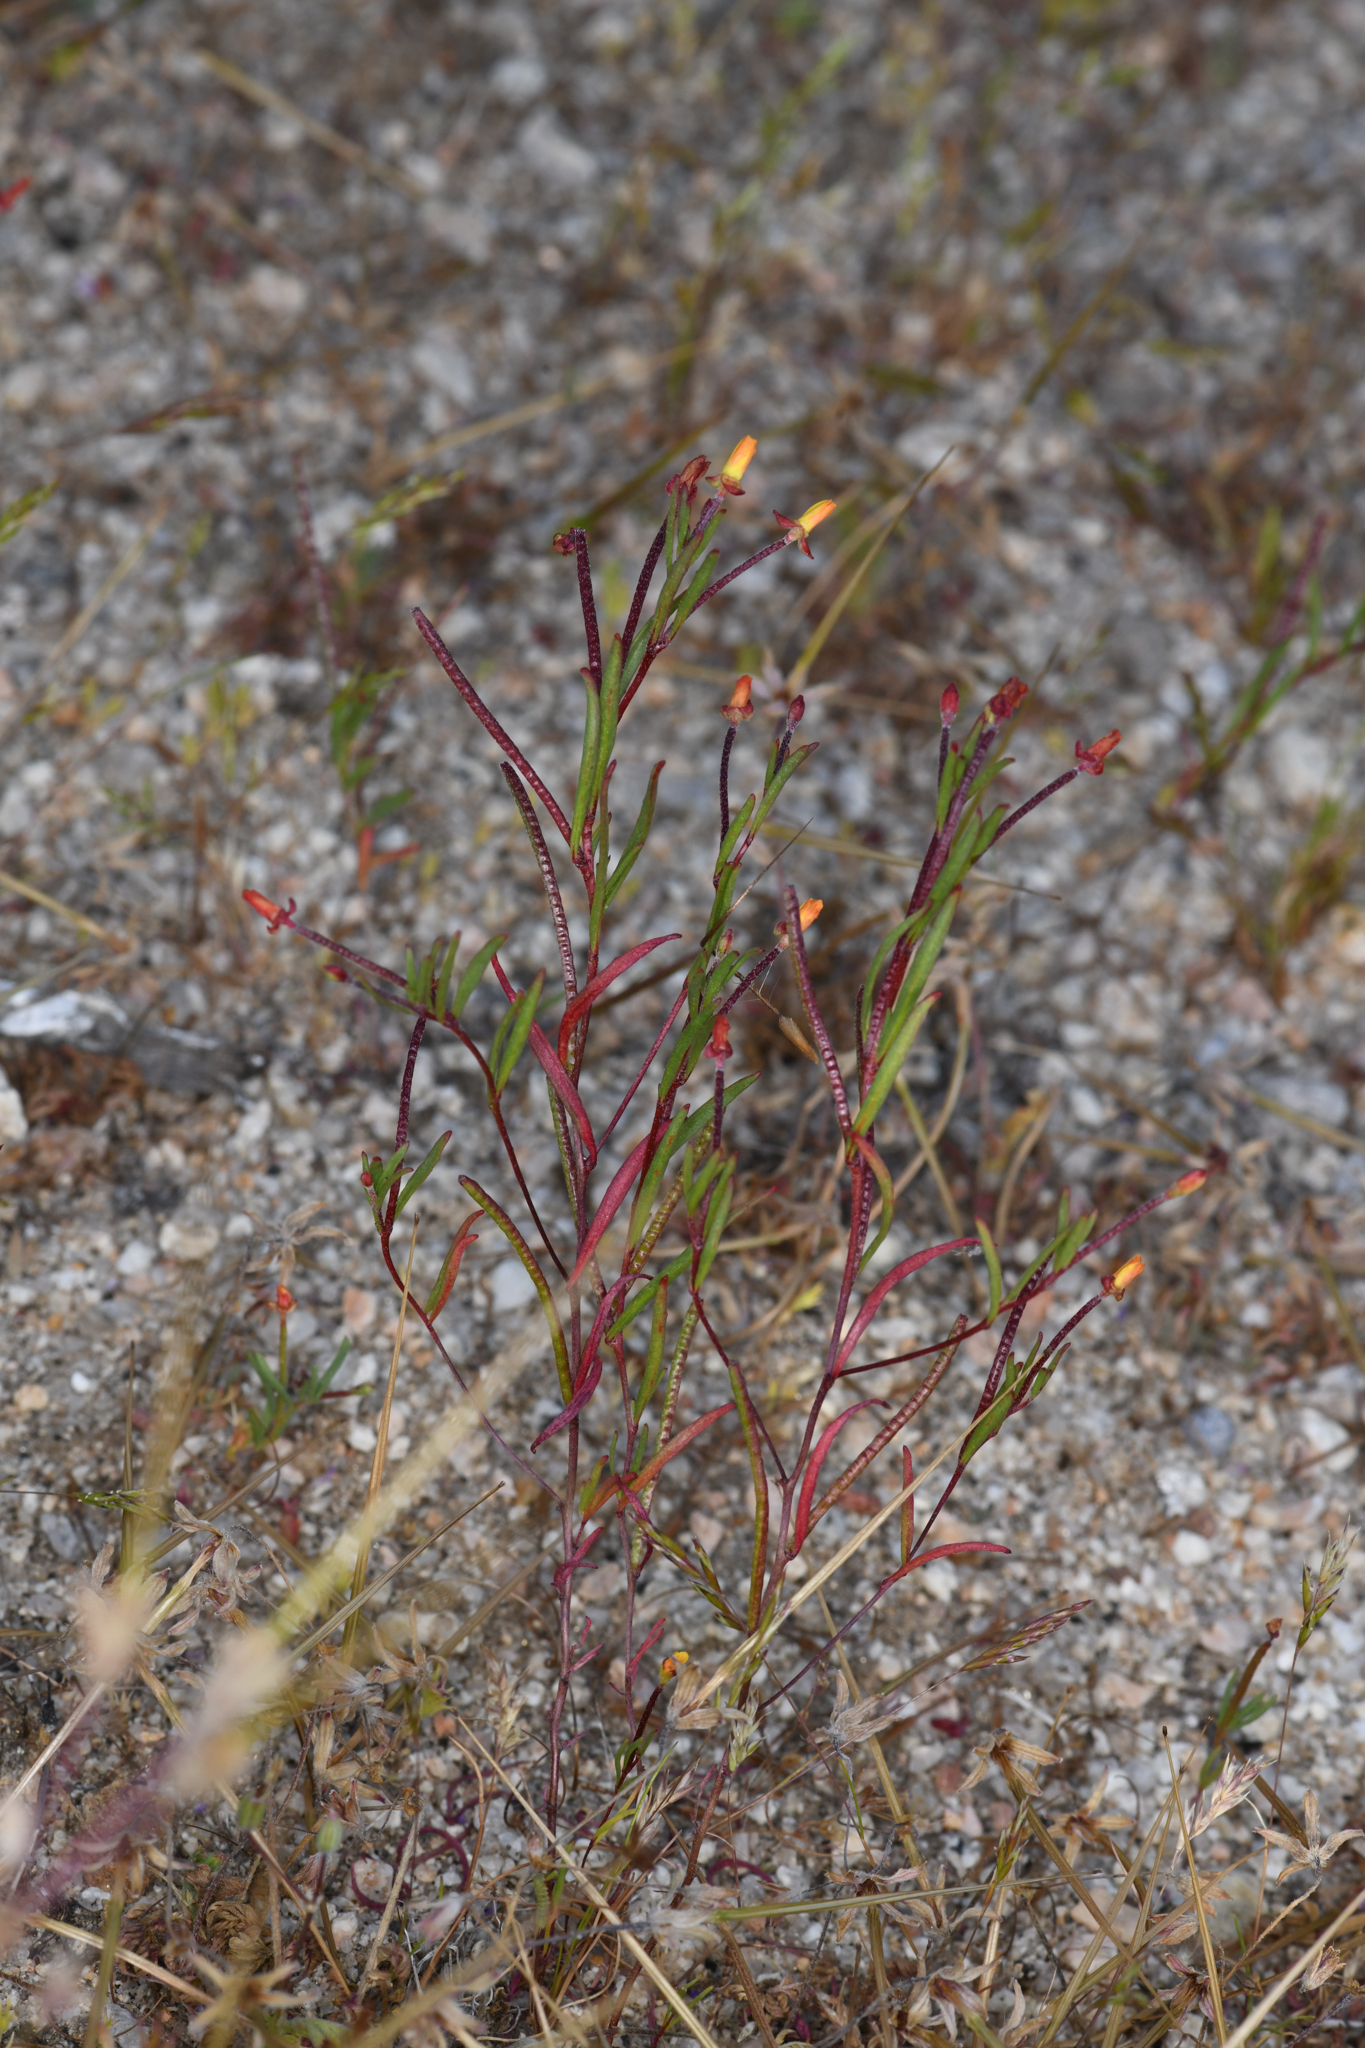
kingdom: Plantae
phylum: Tracheophyta
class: Magnoliopsida
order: Myrtales
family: Onagraceae
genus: Camissonia
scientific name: Camissonia integrifolia
